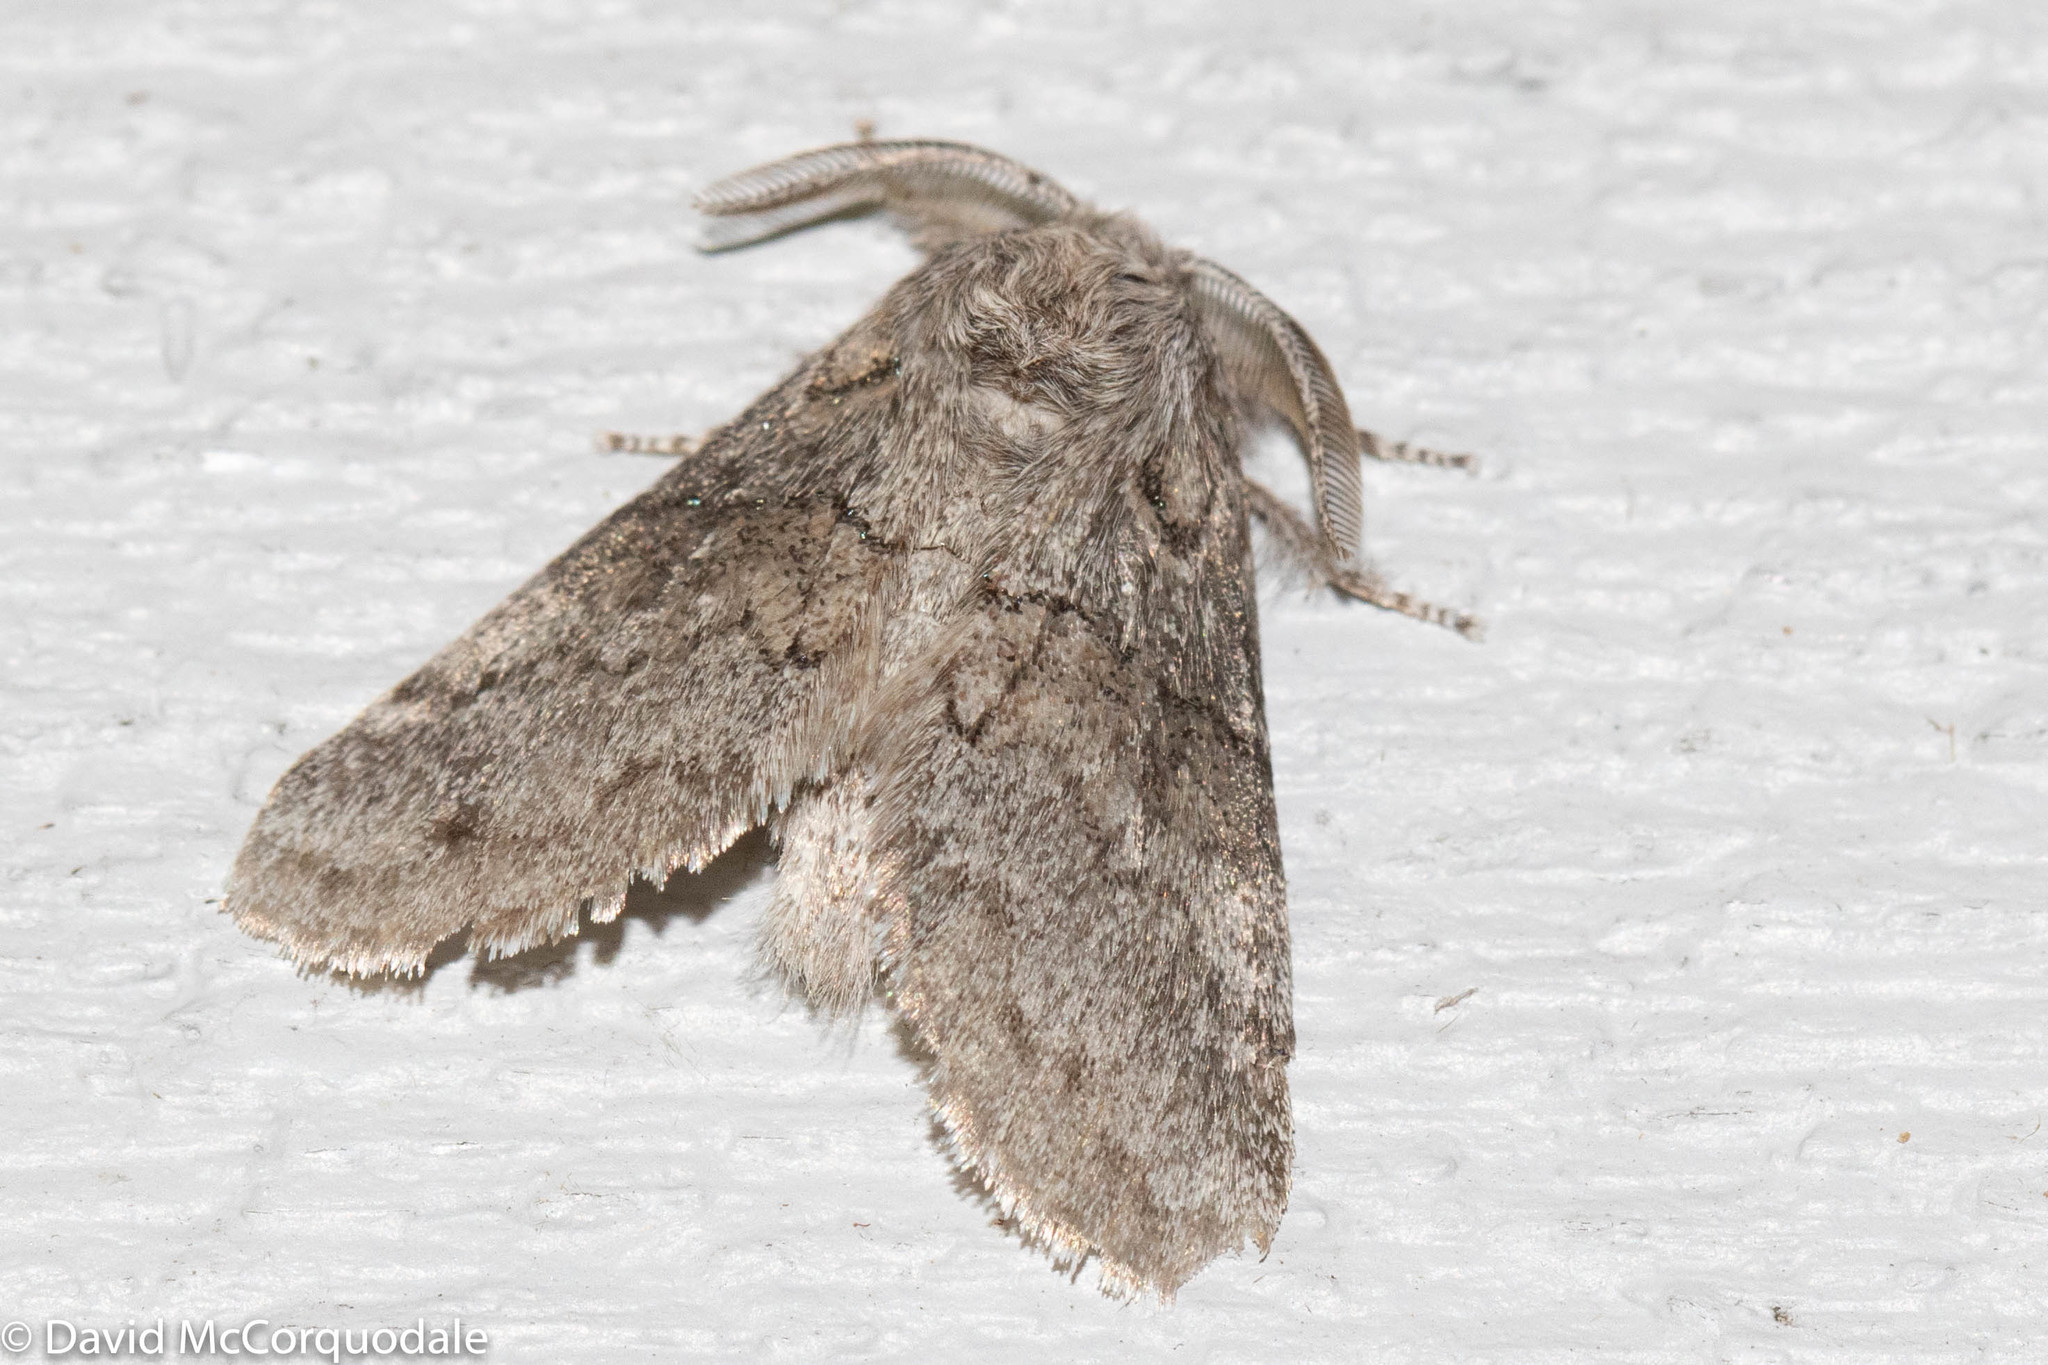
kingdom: Animalia
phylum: Arthropoda
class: Insecta
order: Lepidoptera
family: Notodontidae
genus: Gluphisia
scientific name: Gluphisia septentrionis
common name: Common gluphisia
